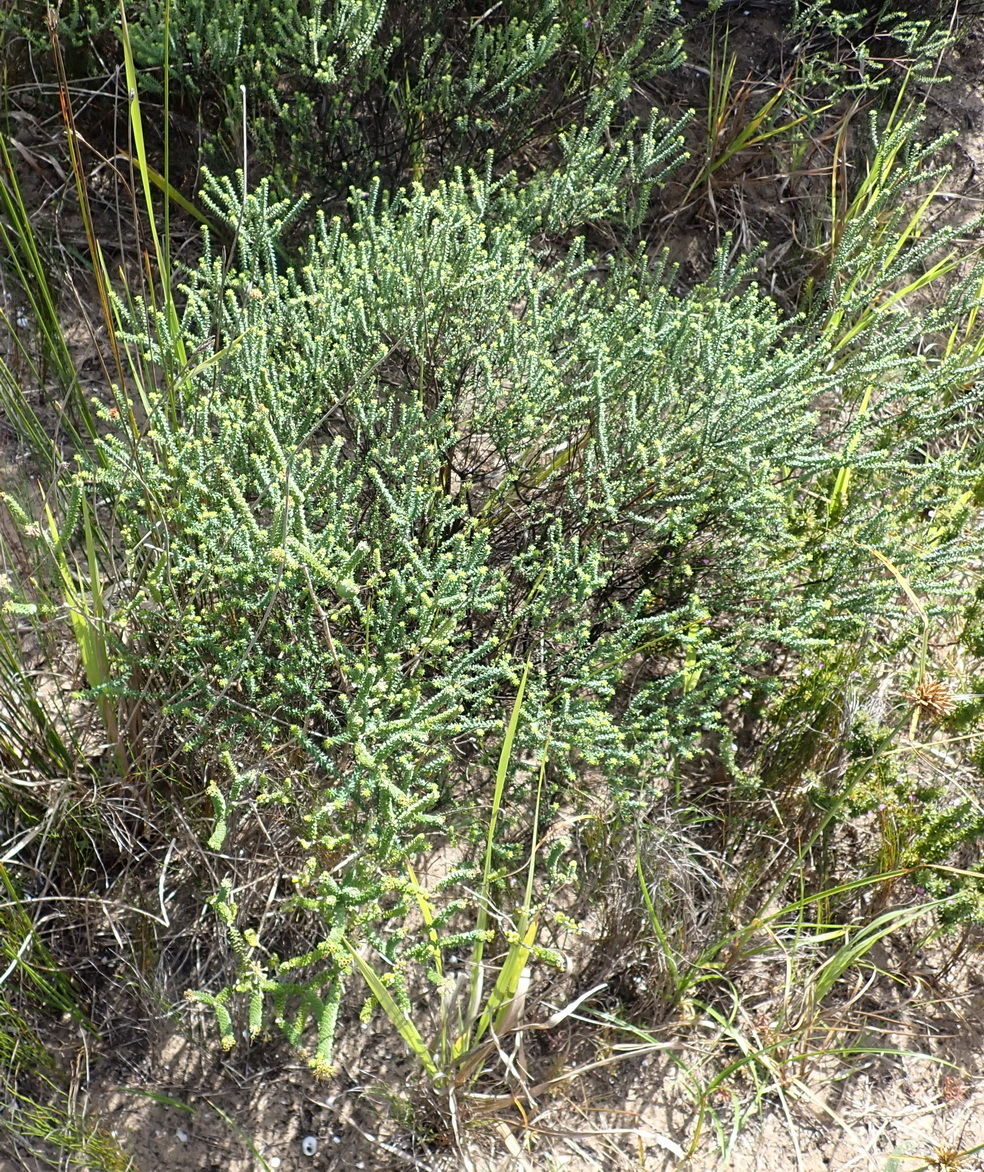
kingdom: Plantae
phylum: Tracheophyta
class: Magnoliopsida
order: Sapindales
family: Rutaceae
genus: Agathosma
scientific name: Agathosma apiculata
